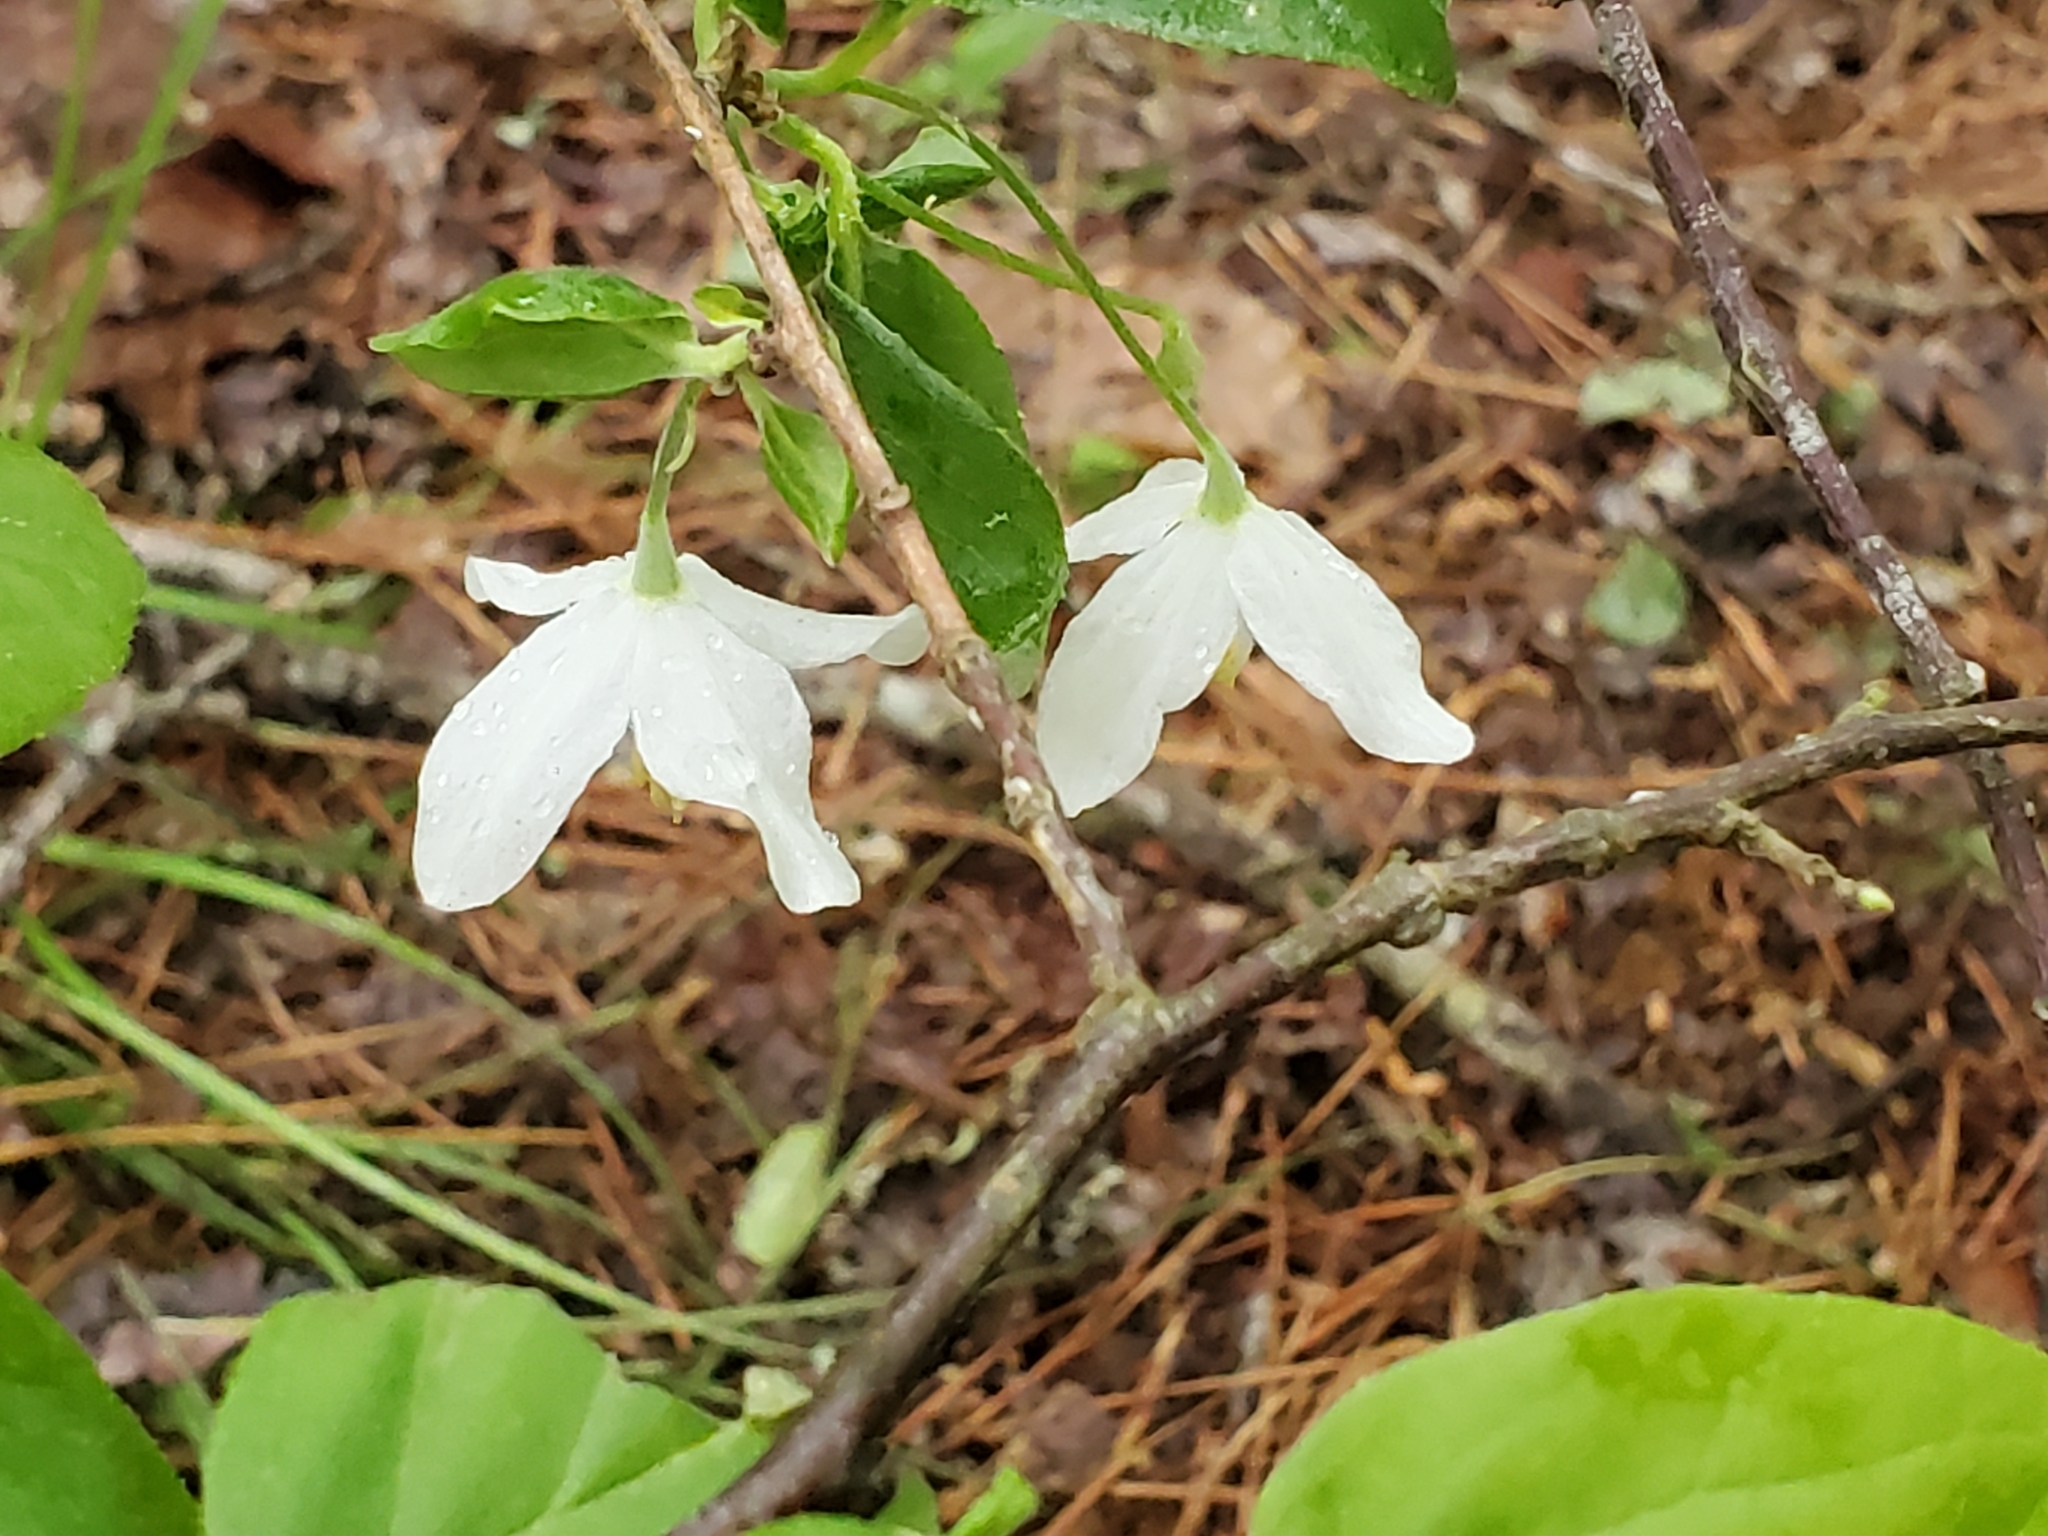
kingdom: Plantae
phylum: Tracheophyta
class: Magnoliopsida
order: Ericales
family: Styracaceae
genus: Halesia
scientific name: Halesia diptera
